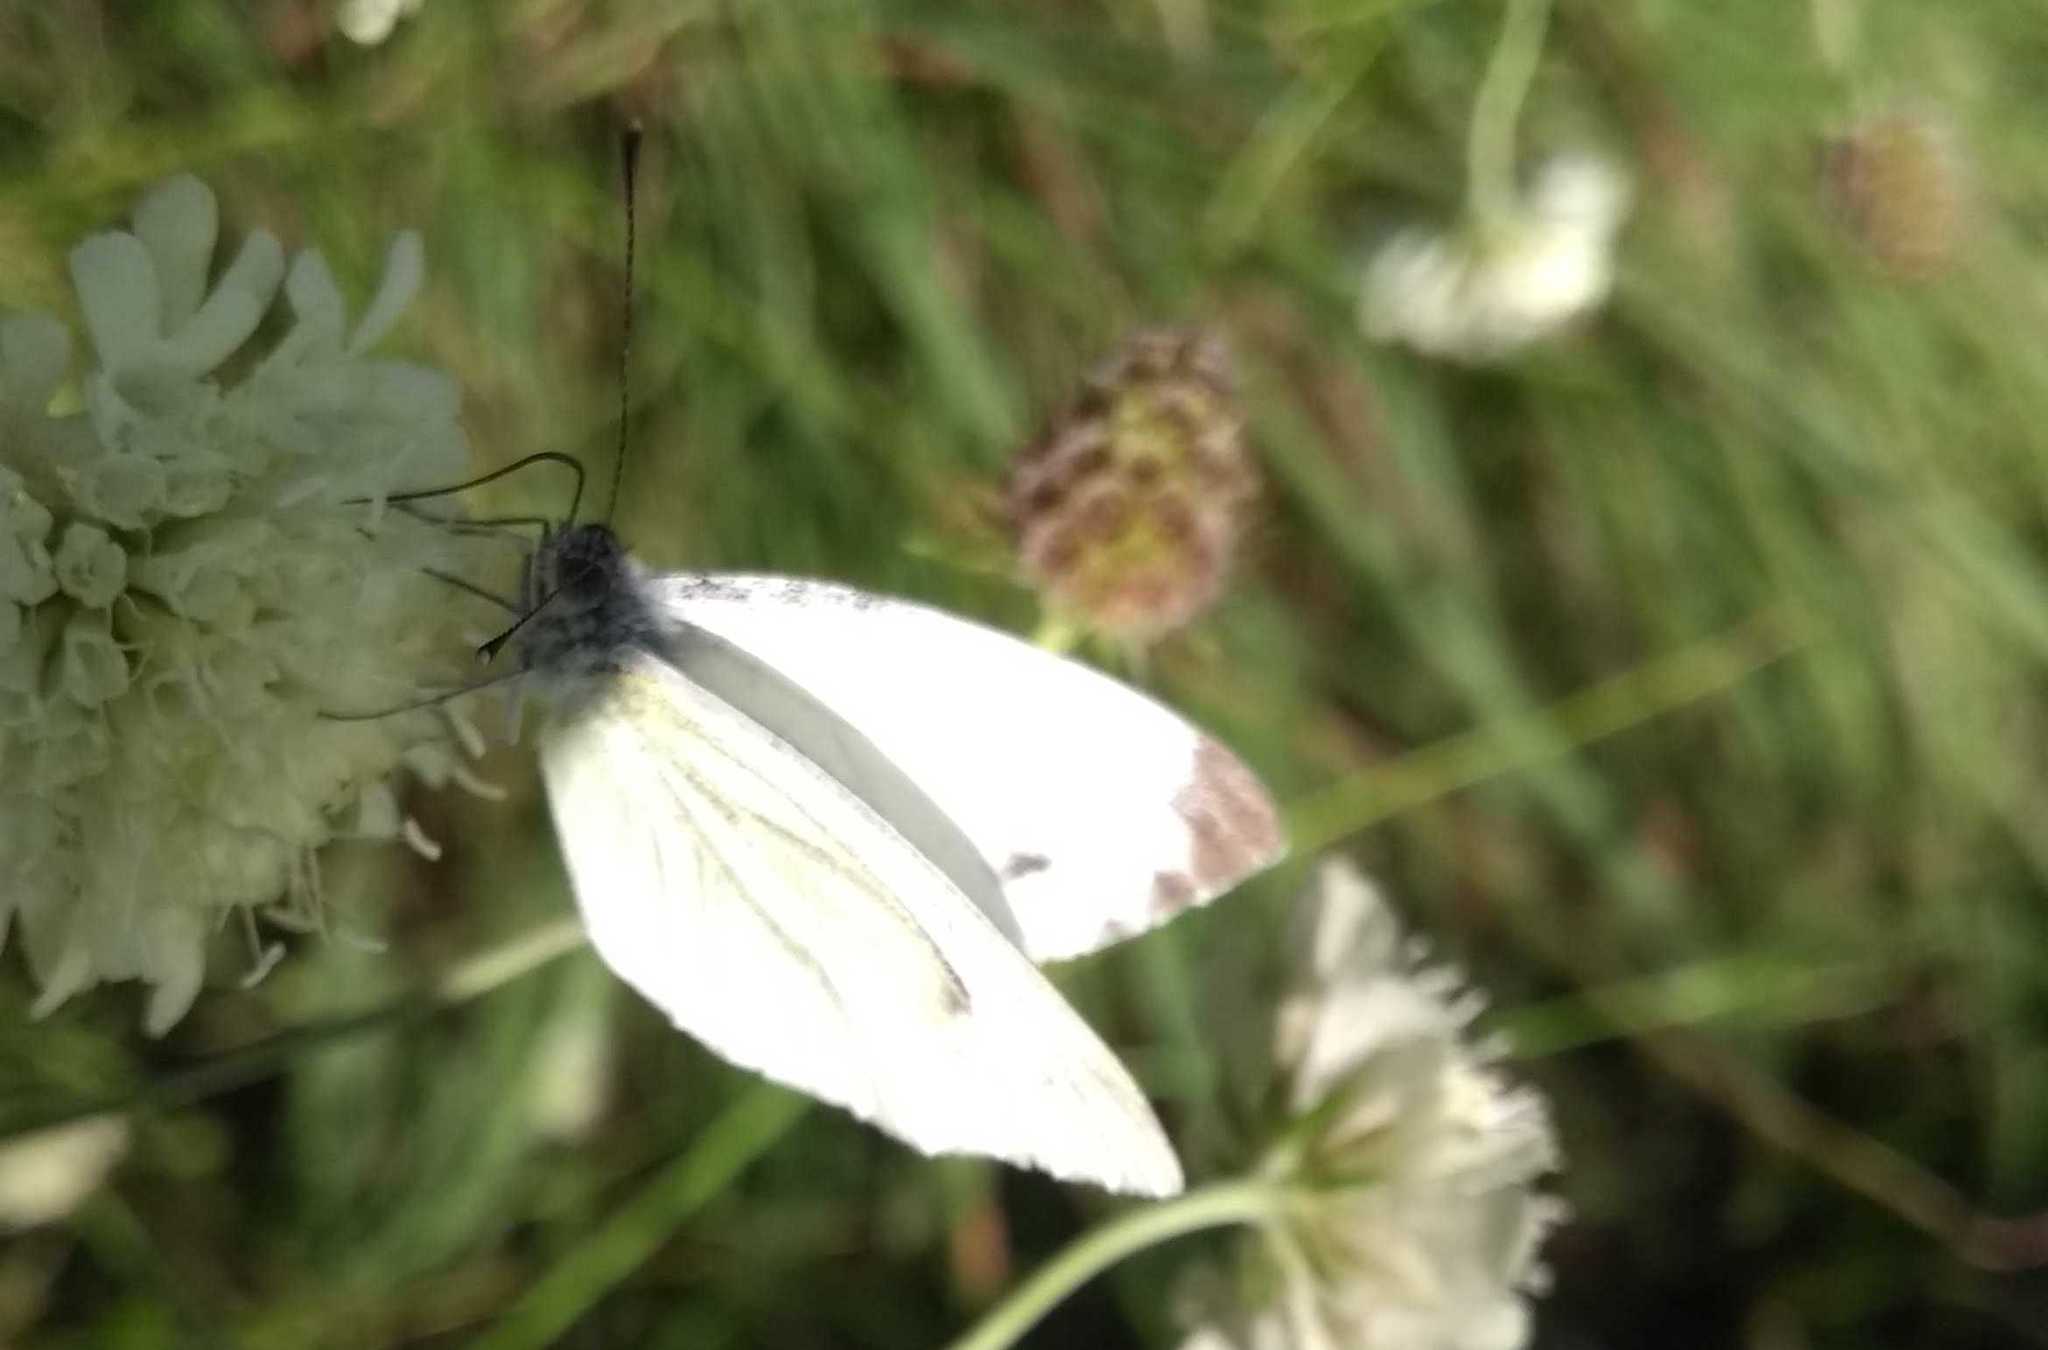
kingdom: Animalia
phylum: Arthropoda
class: Insecta
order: Lepidoptera
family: Pieridae
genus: Pieris
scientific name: Pieris napi
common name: Green-veined white
